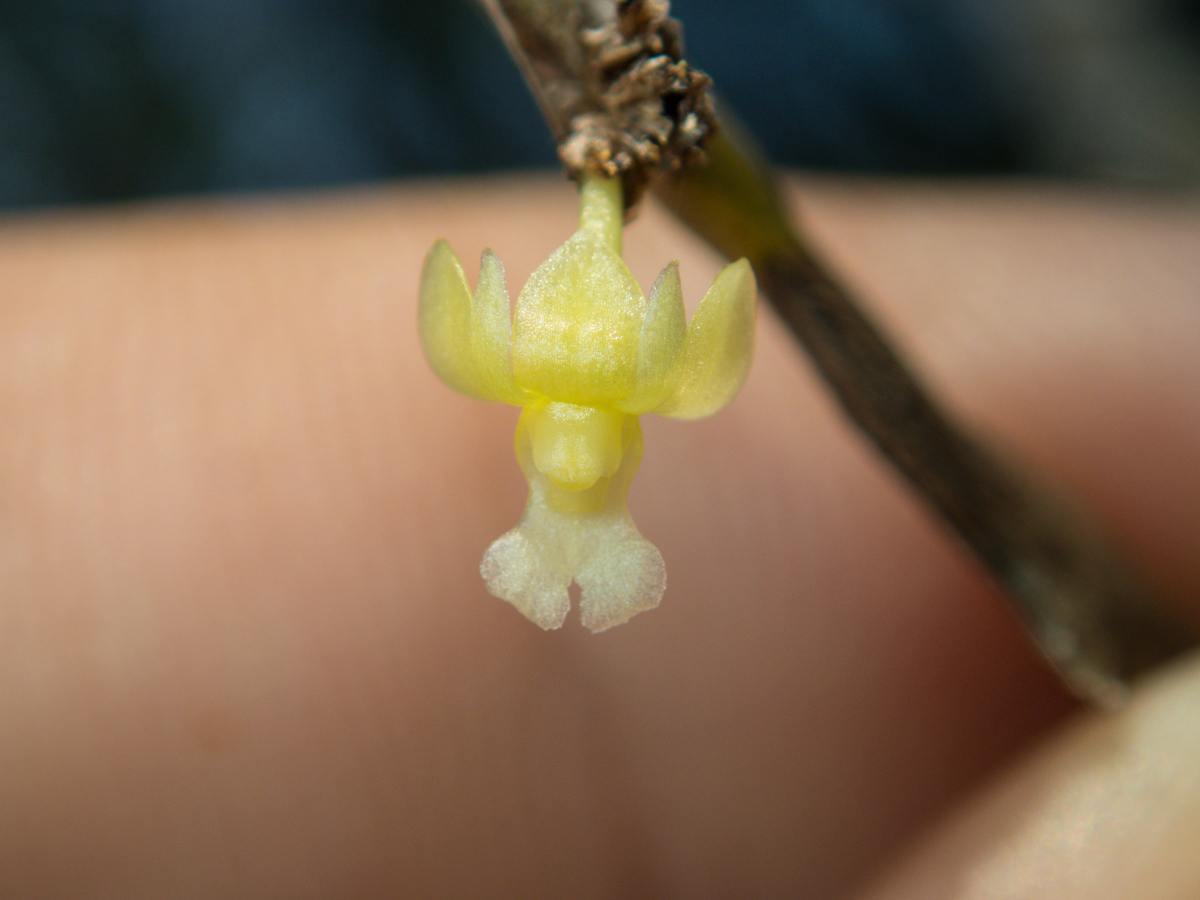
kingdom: Plantae
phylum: Tracheophyta
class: Liliopsida
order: Asparagales
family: Orchidaceae
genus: Dendrobium
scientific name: Dendrobium aloifolium
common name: Aloe-like dendrobium
